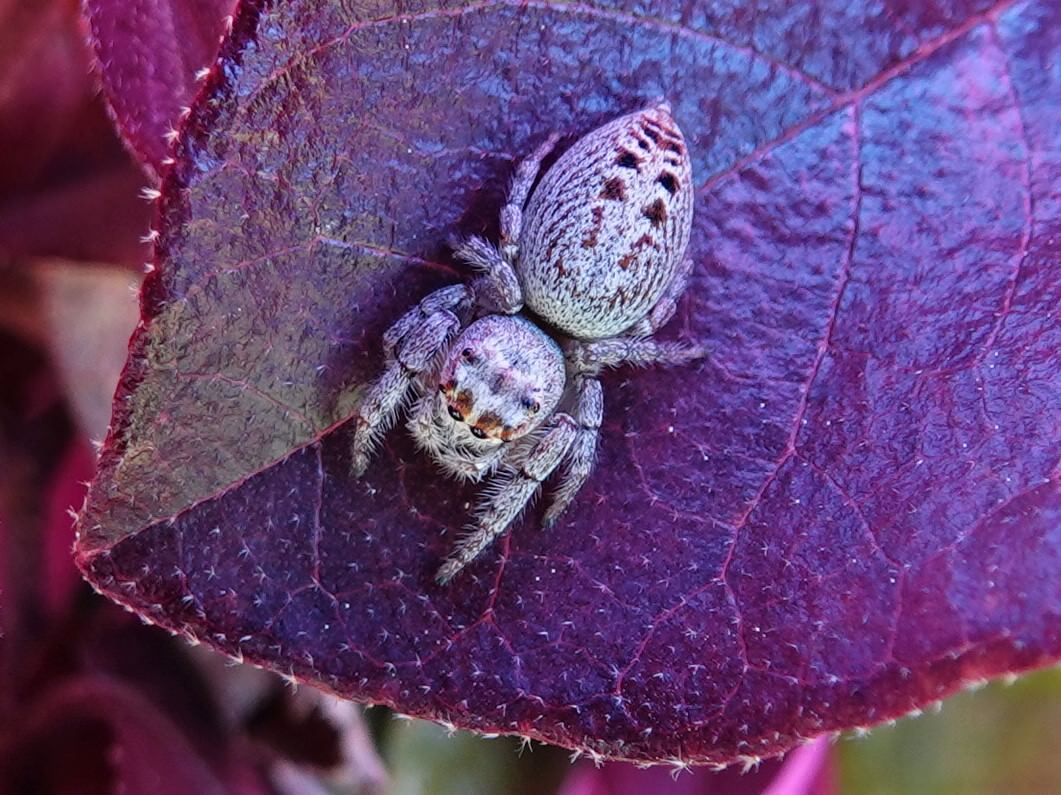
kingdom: Animalia
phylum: Arthropoda
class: Arachnida
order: Araneae
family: Salticidae
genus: Opisthoncus
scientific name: Opisthoncus polyphemus
